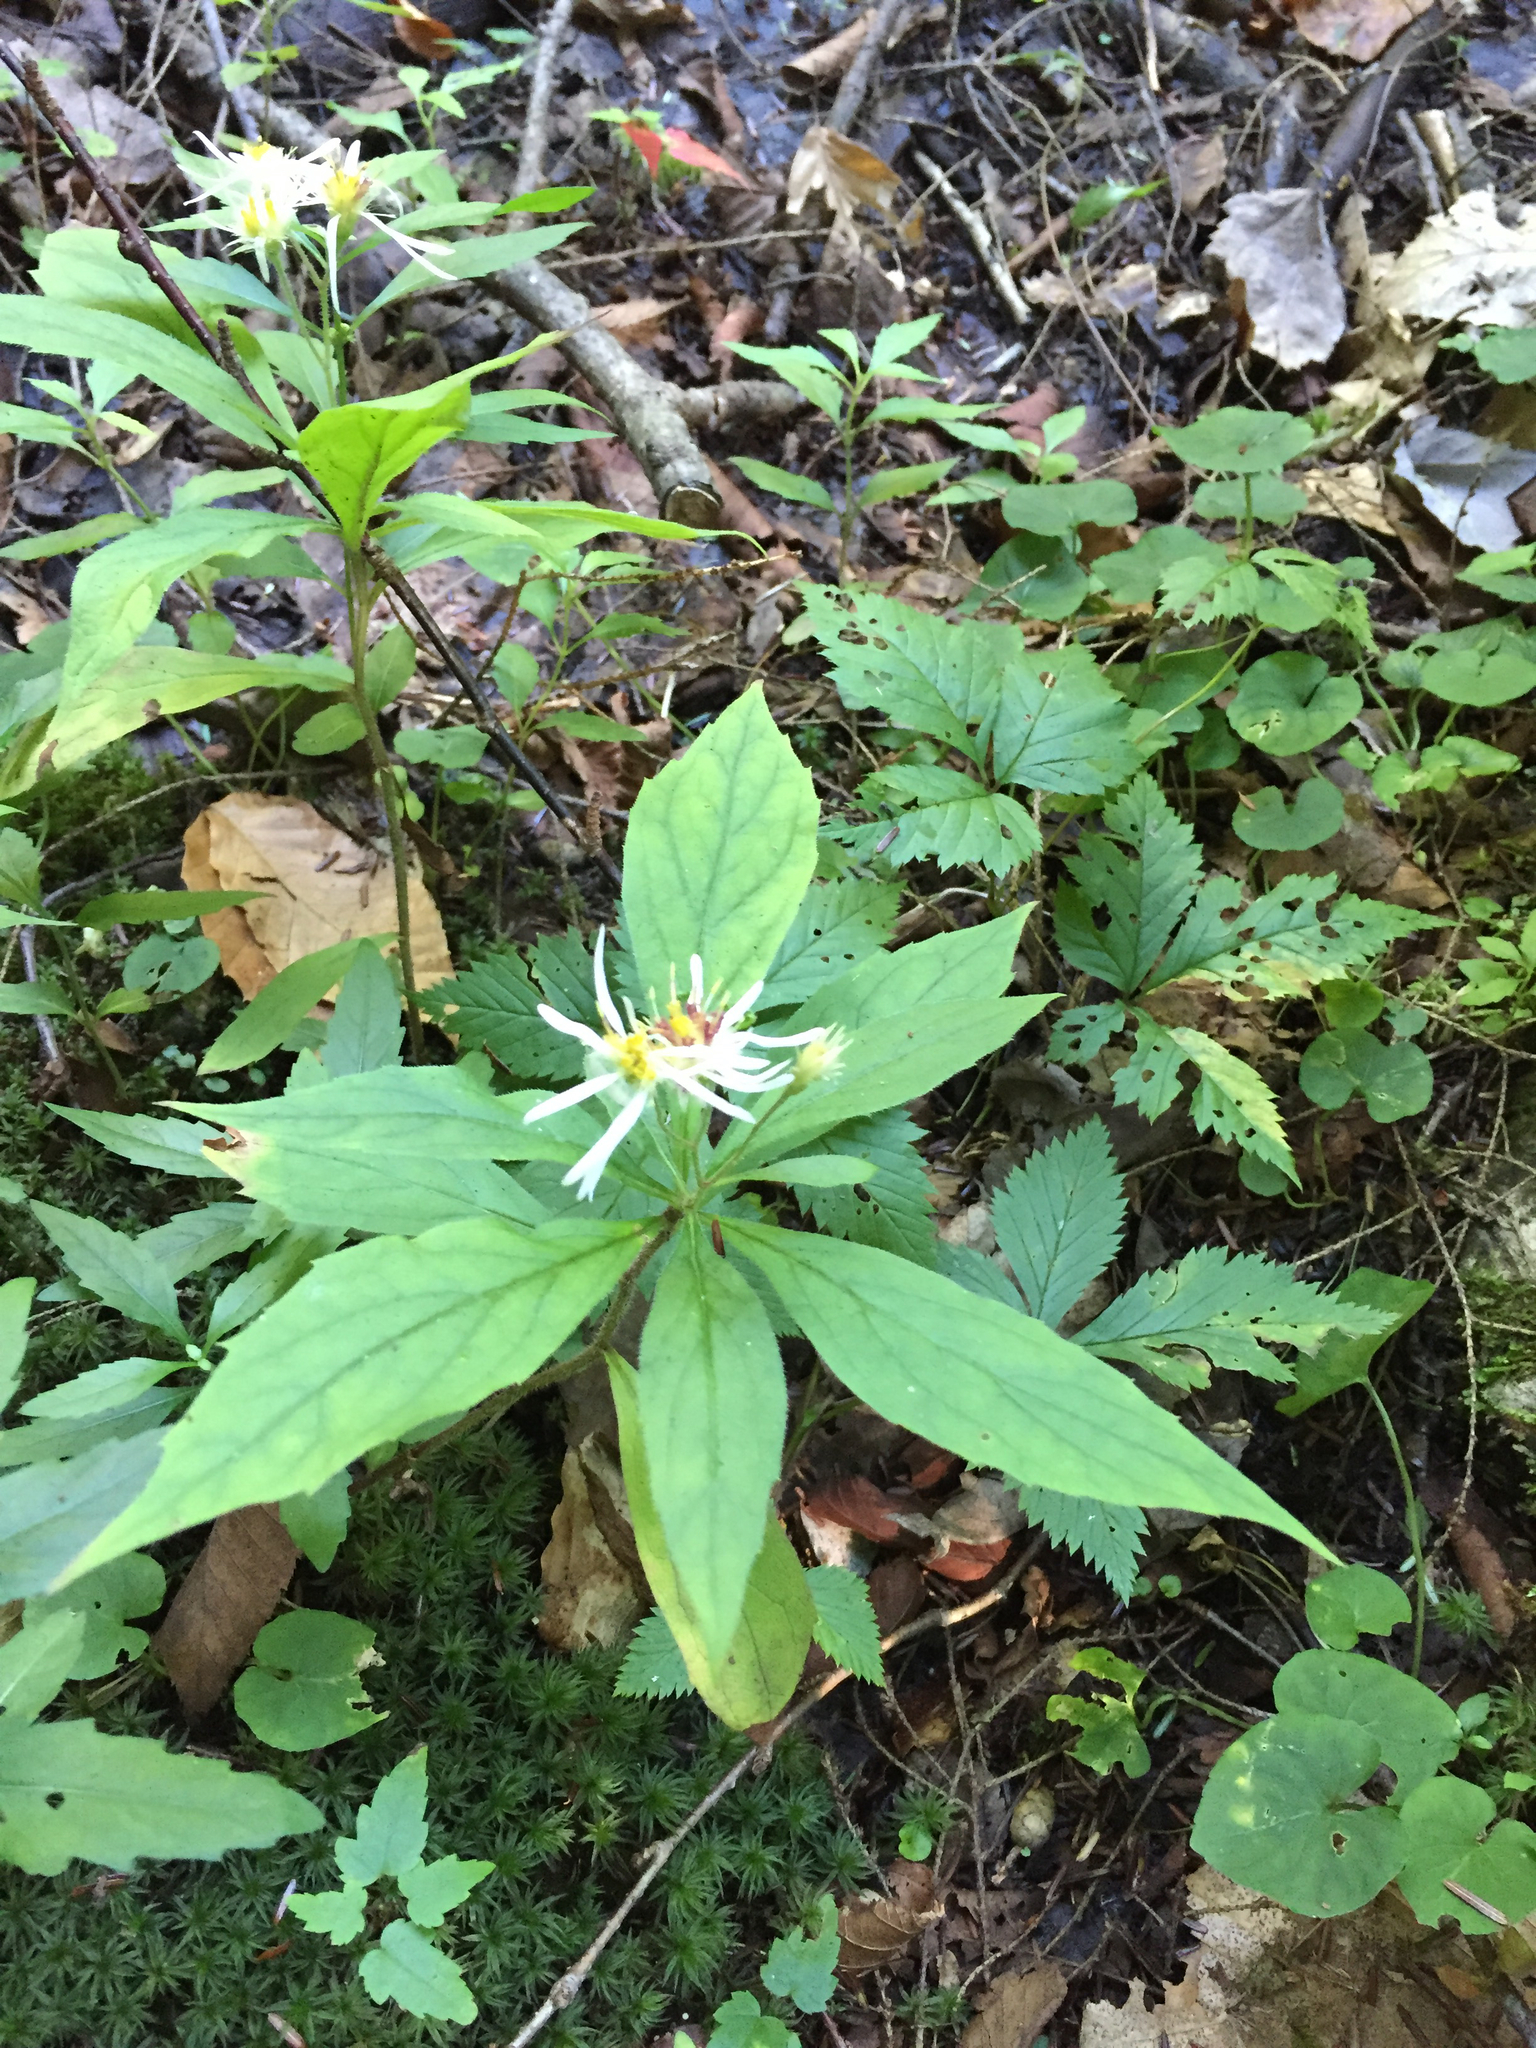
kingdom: Plantae
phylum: Tracheophyta
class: Magnoliopsida
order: Asterales
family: Asteraceae
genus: Oclemena
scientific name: Oclemena acuminata
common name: Mountain aster
